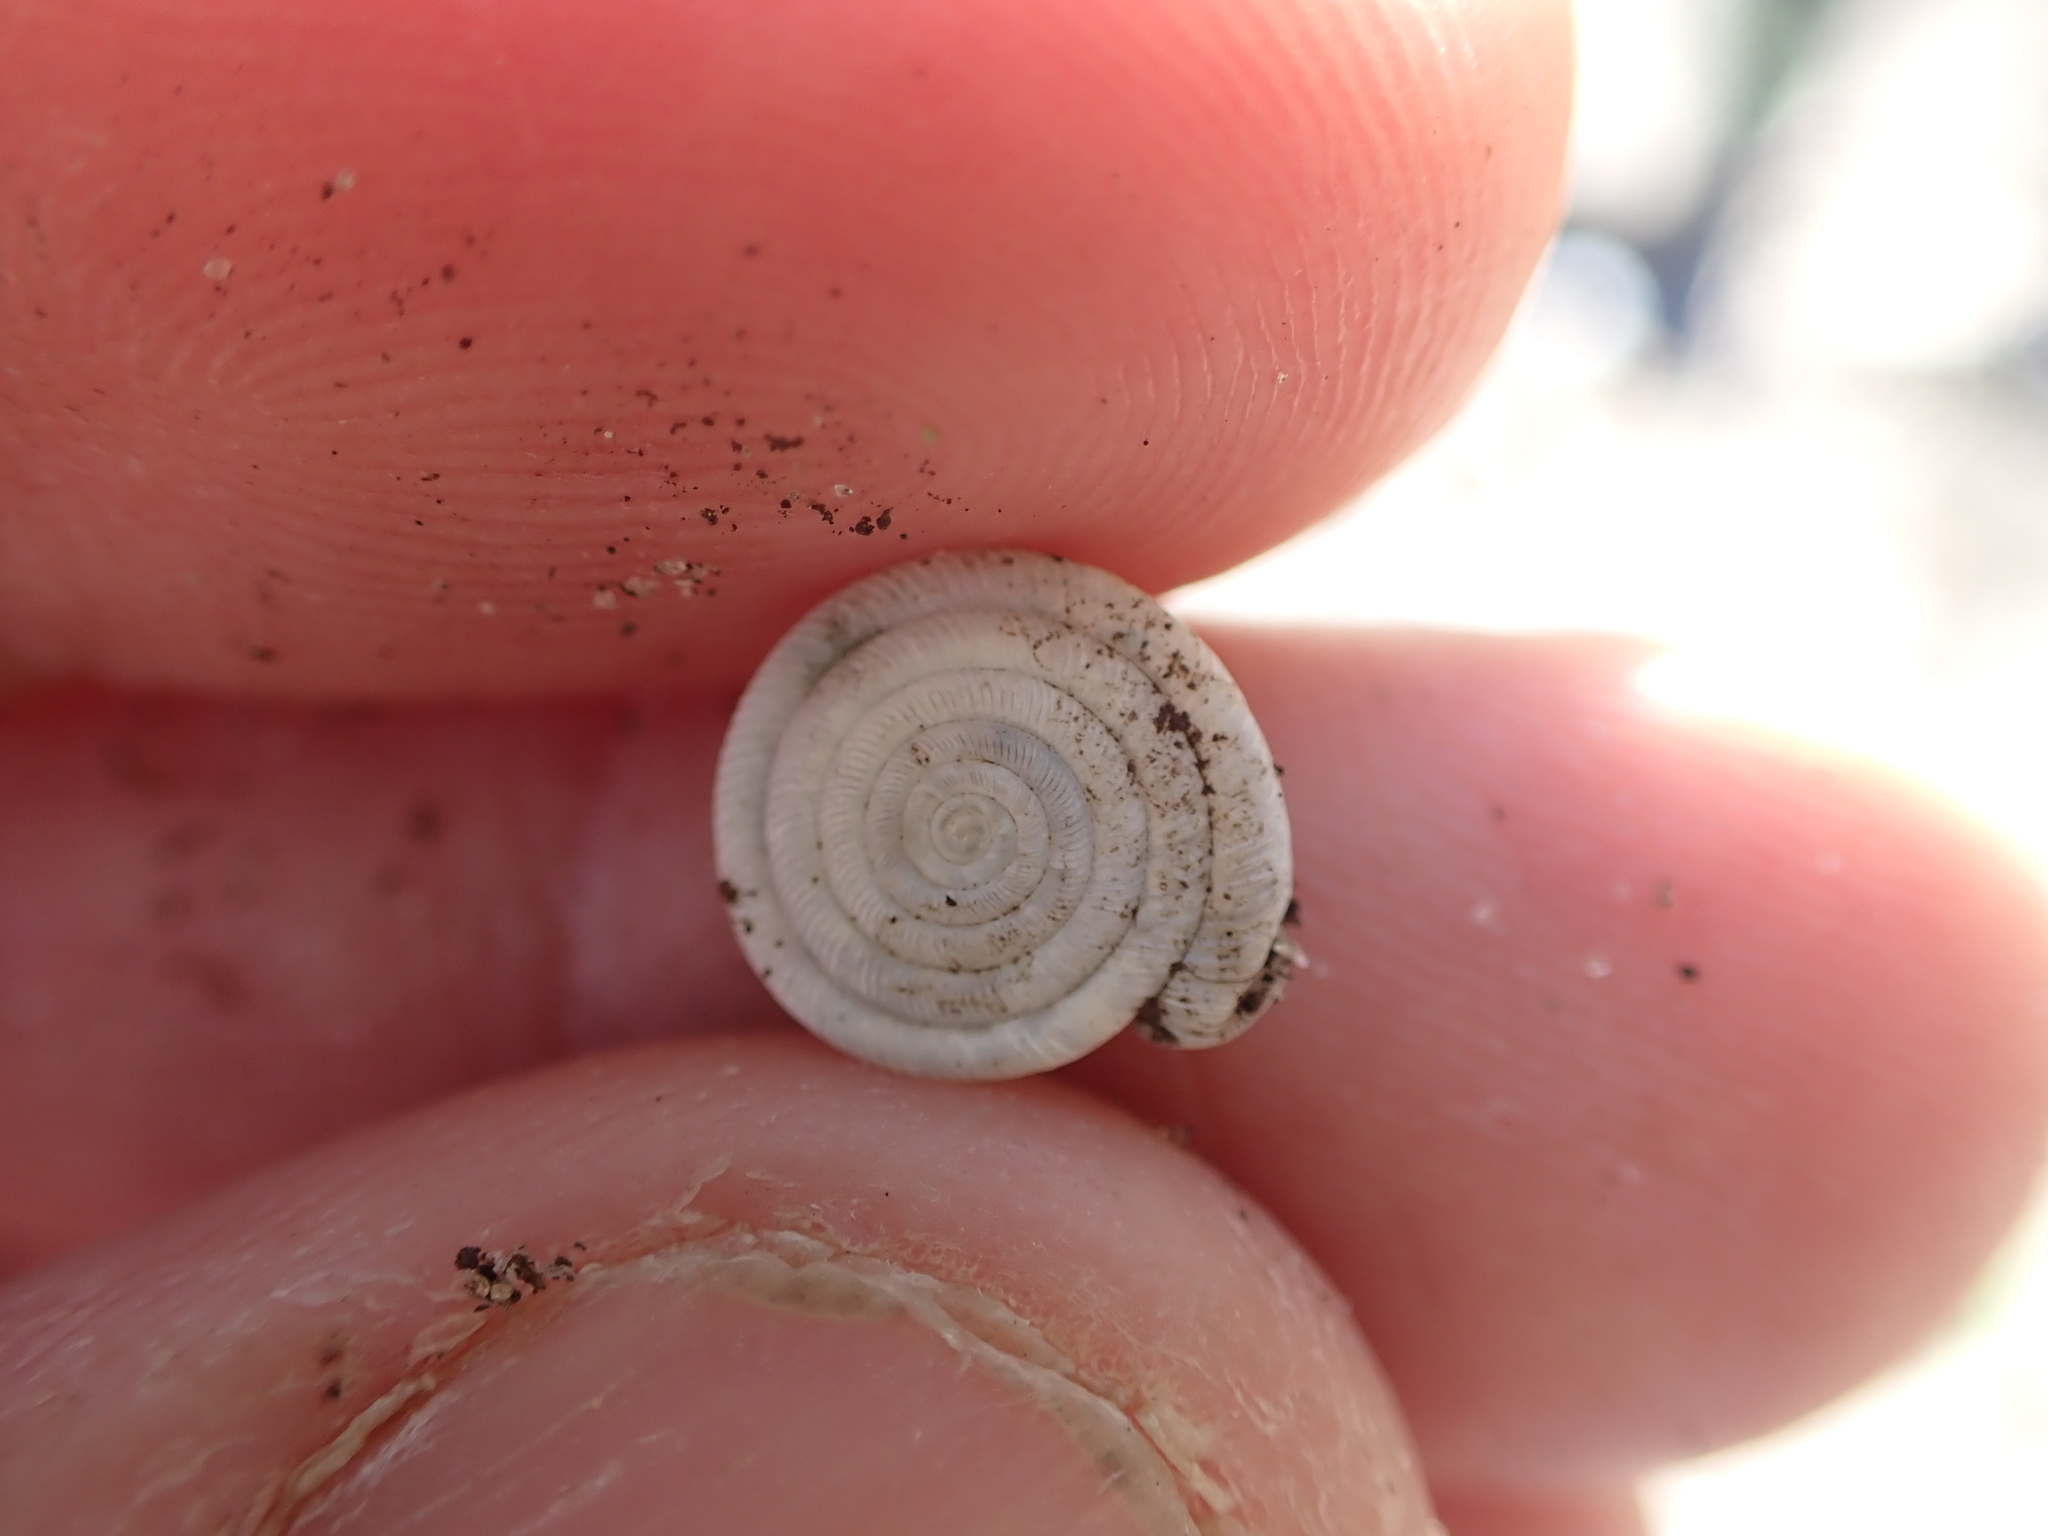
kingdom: Animalia
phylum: Mollusca
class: Gastropoda
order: Stylommatophora
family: Polygyridae
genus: Polygyra
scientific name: Polygyra cereolus
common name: Southern flatcone snail
